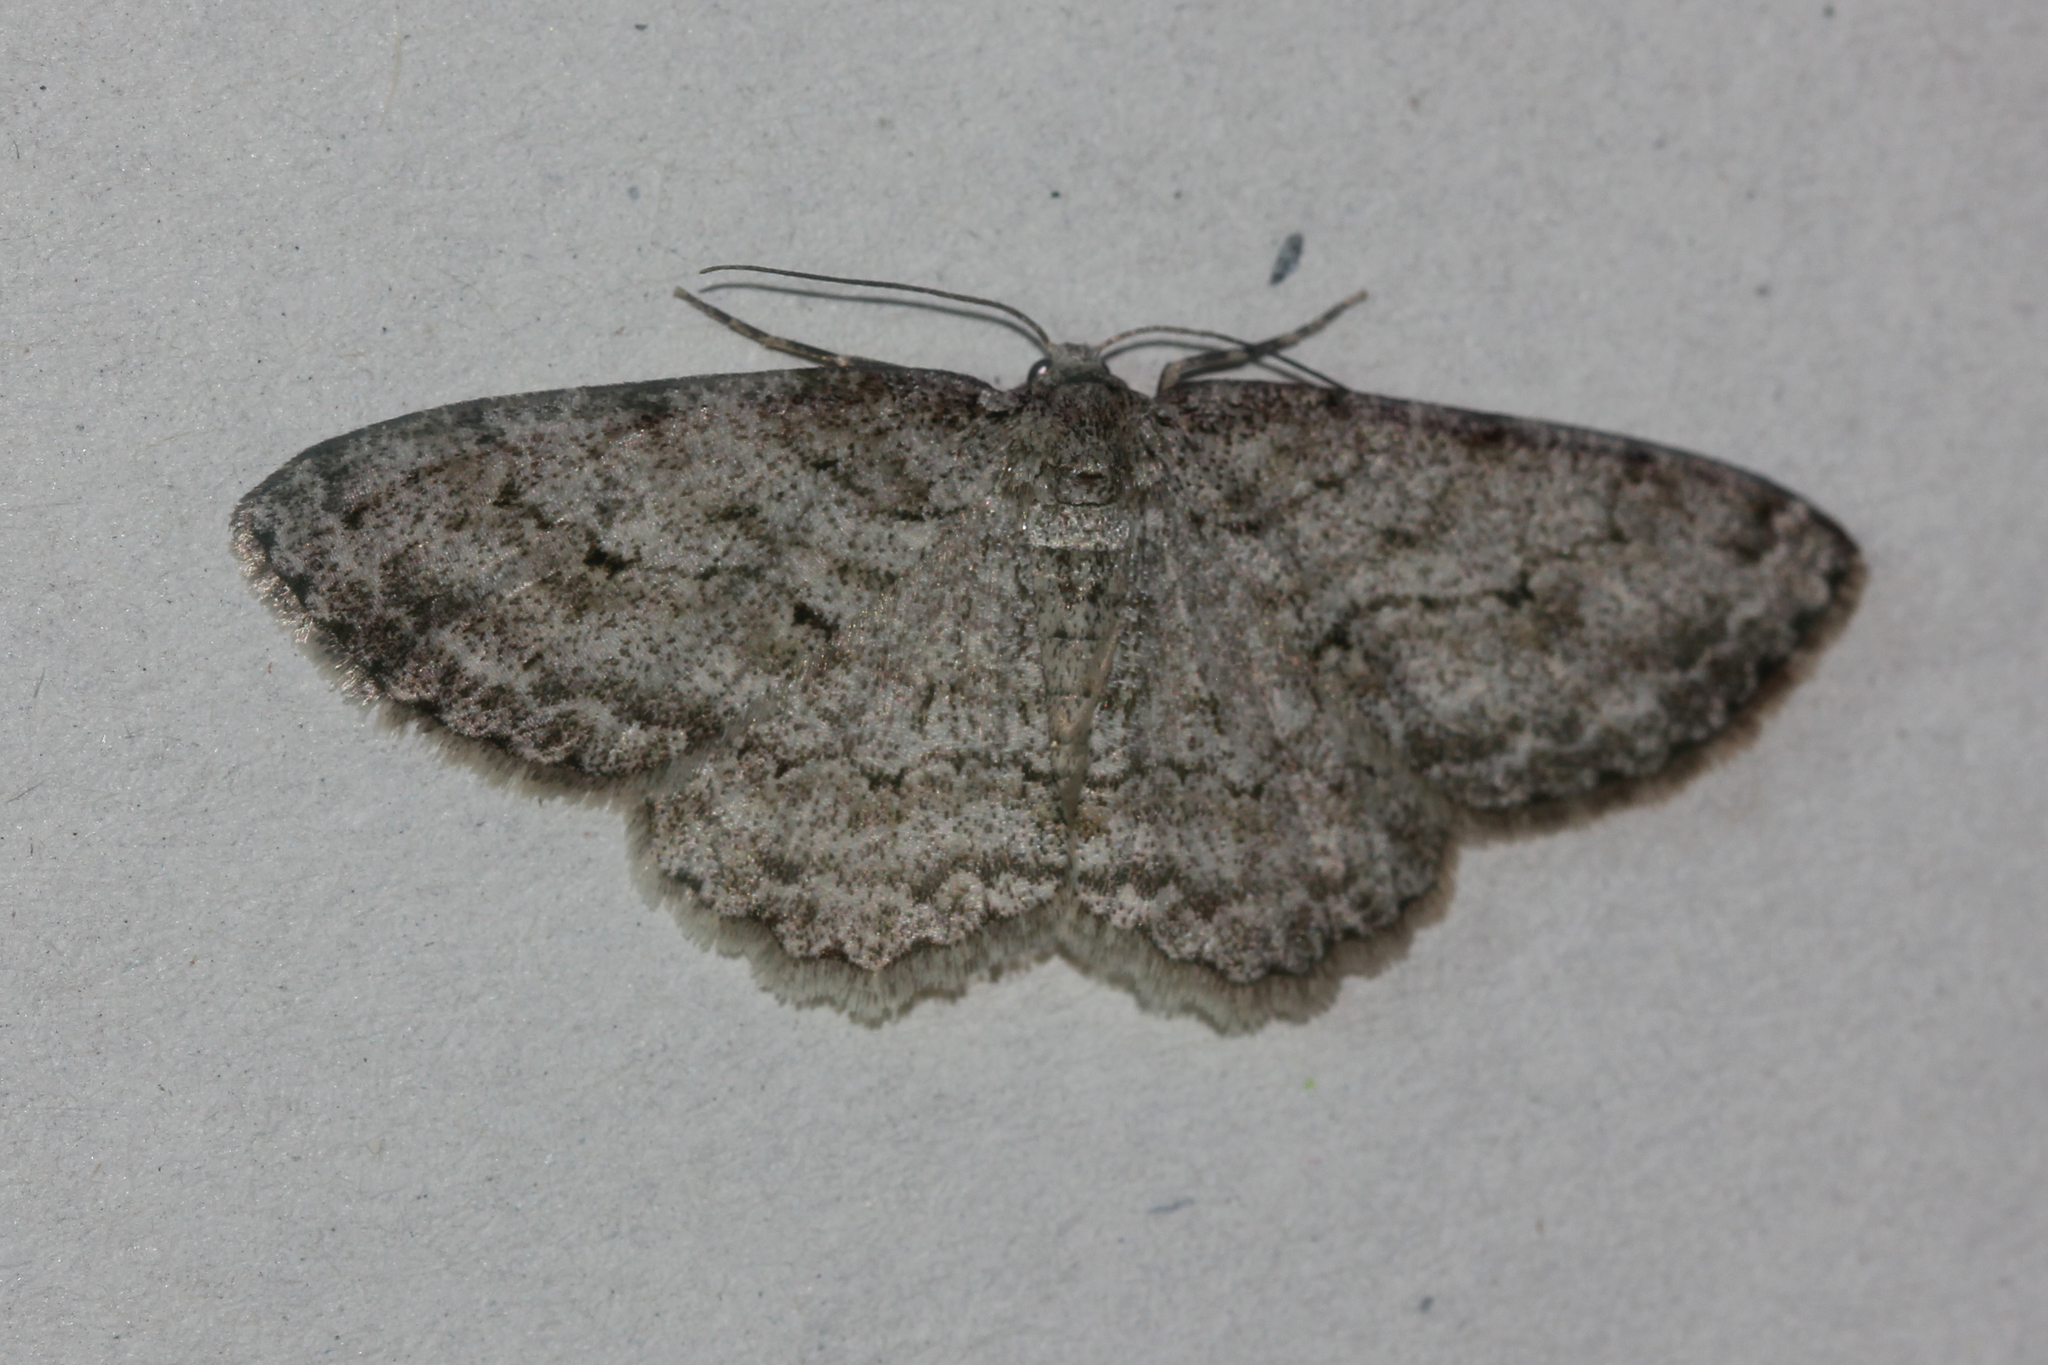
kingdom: Animalia
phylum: Arthropoda
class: Insecta
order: Lepidoptera
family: Geometridae
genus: Ectropis
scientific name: Ectropis crepuscularia
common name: Engrailed
